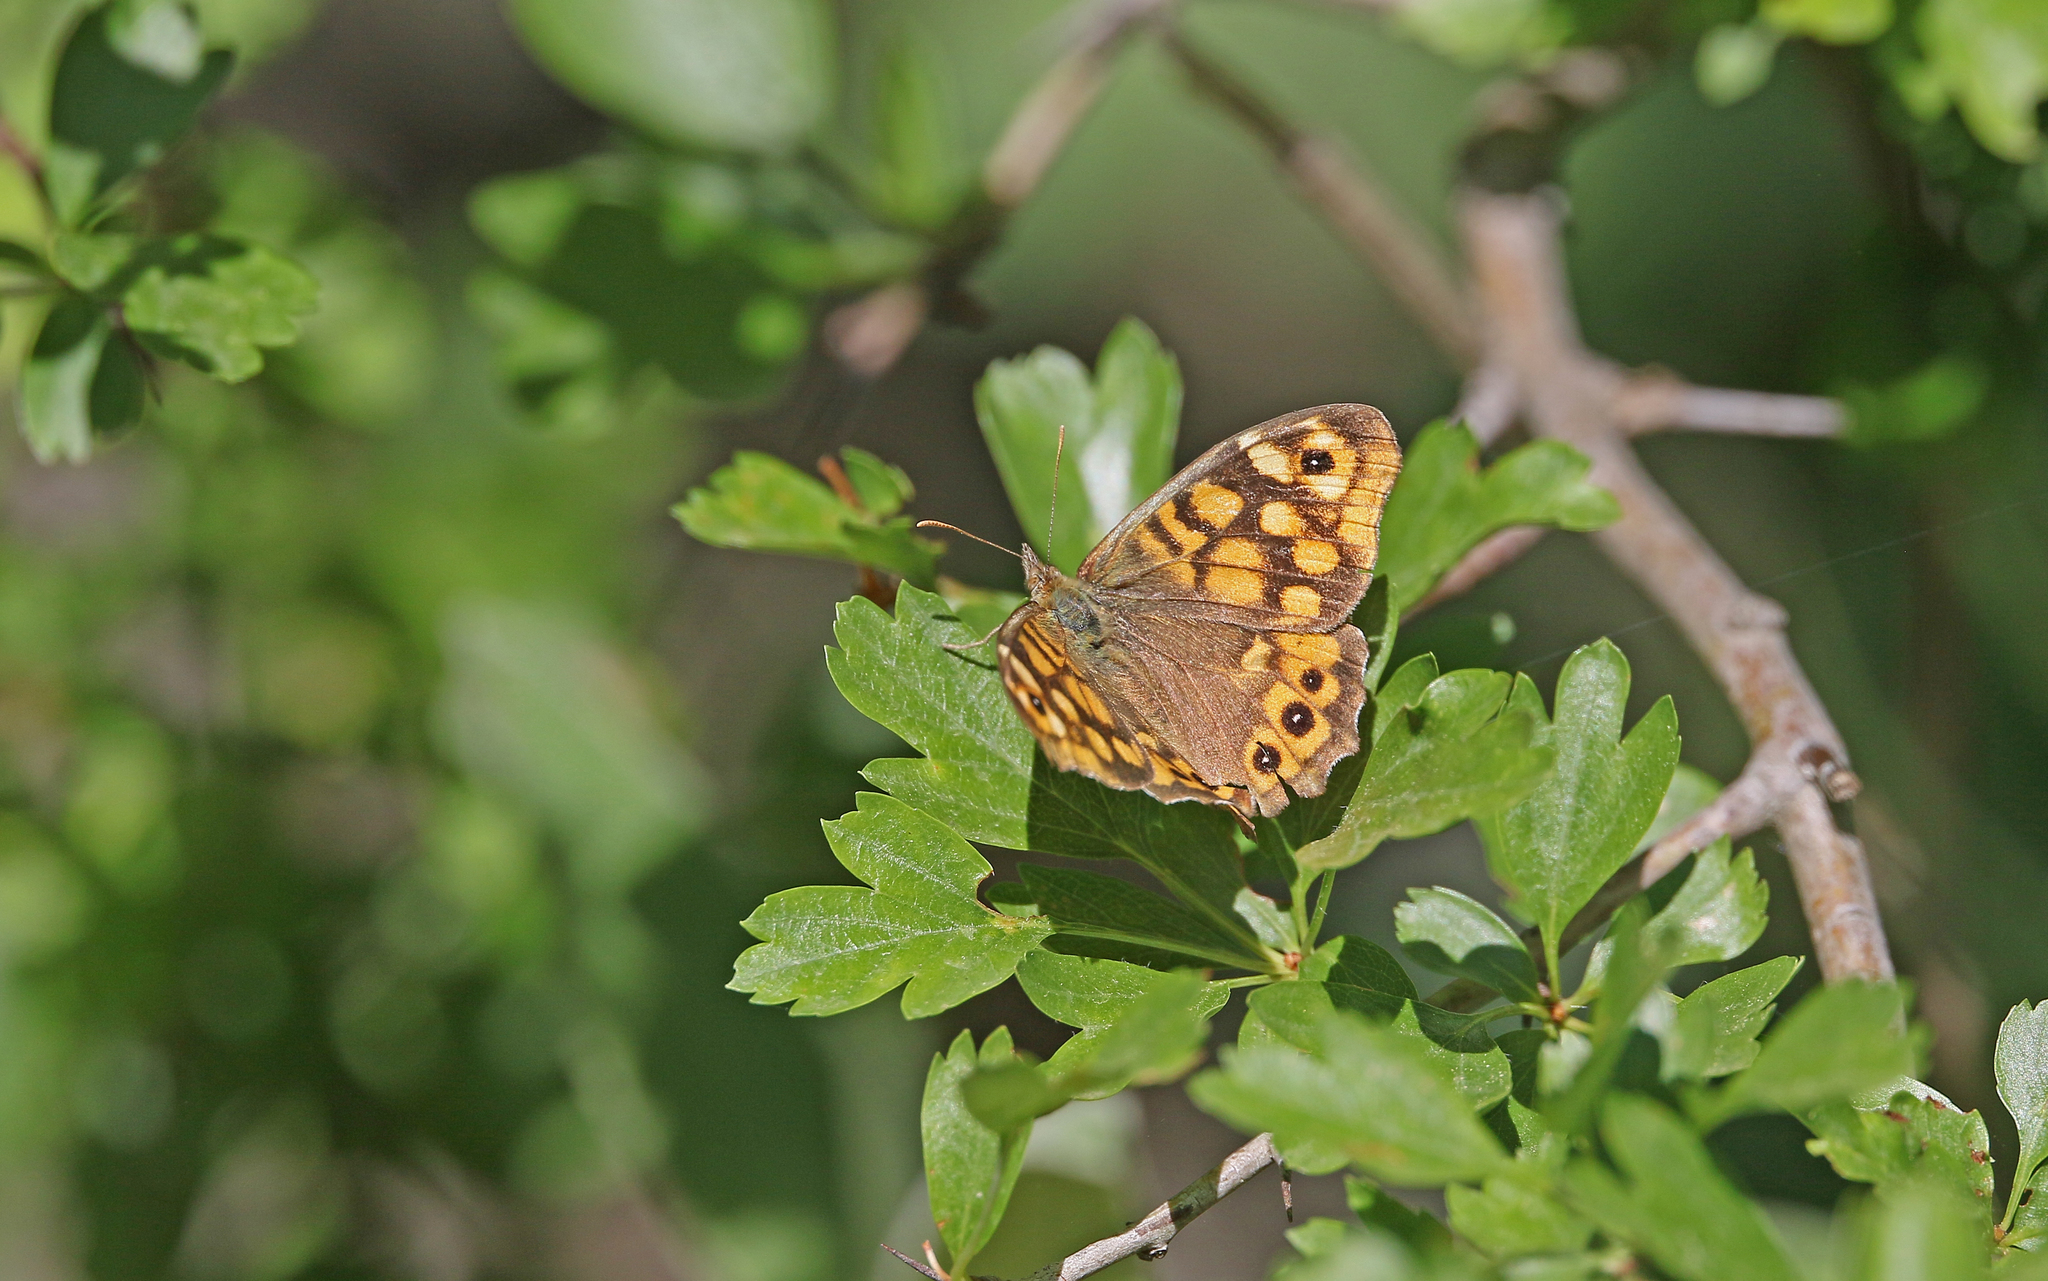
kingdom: Animalia
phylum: Arthropoda
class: Insecta
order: Lepidoptera
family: Nymphalidae
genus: Pararge
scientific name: Pararge aegeria
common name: Speckled wood
